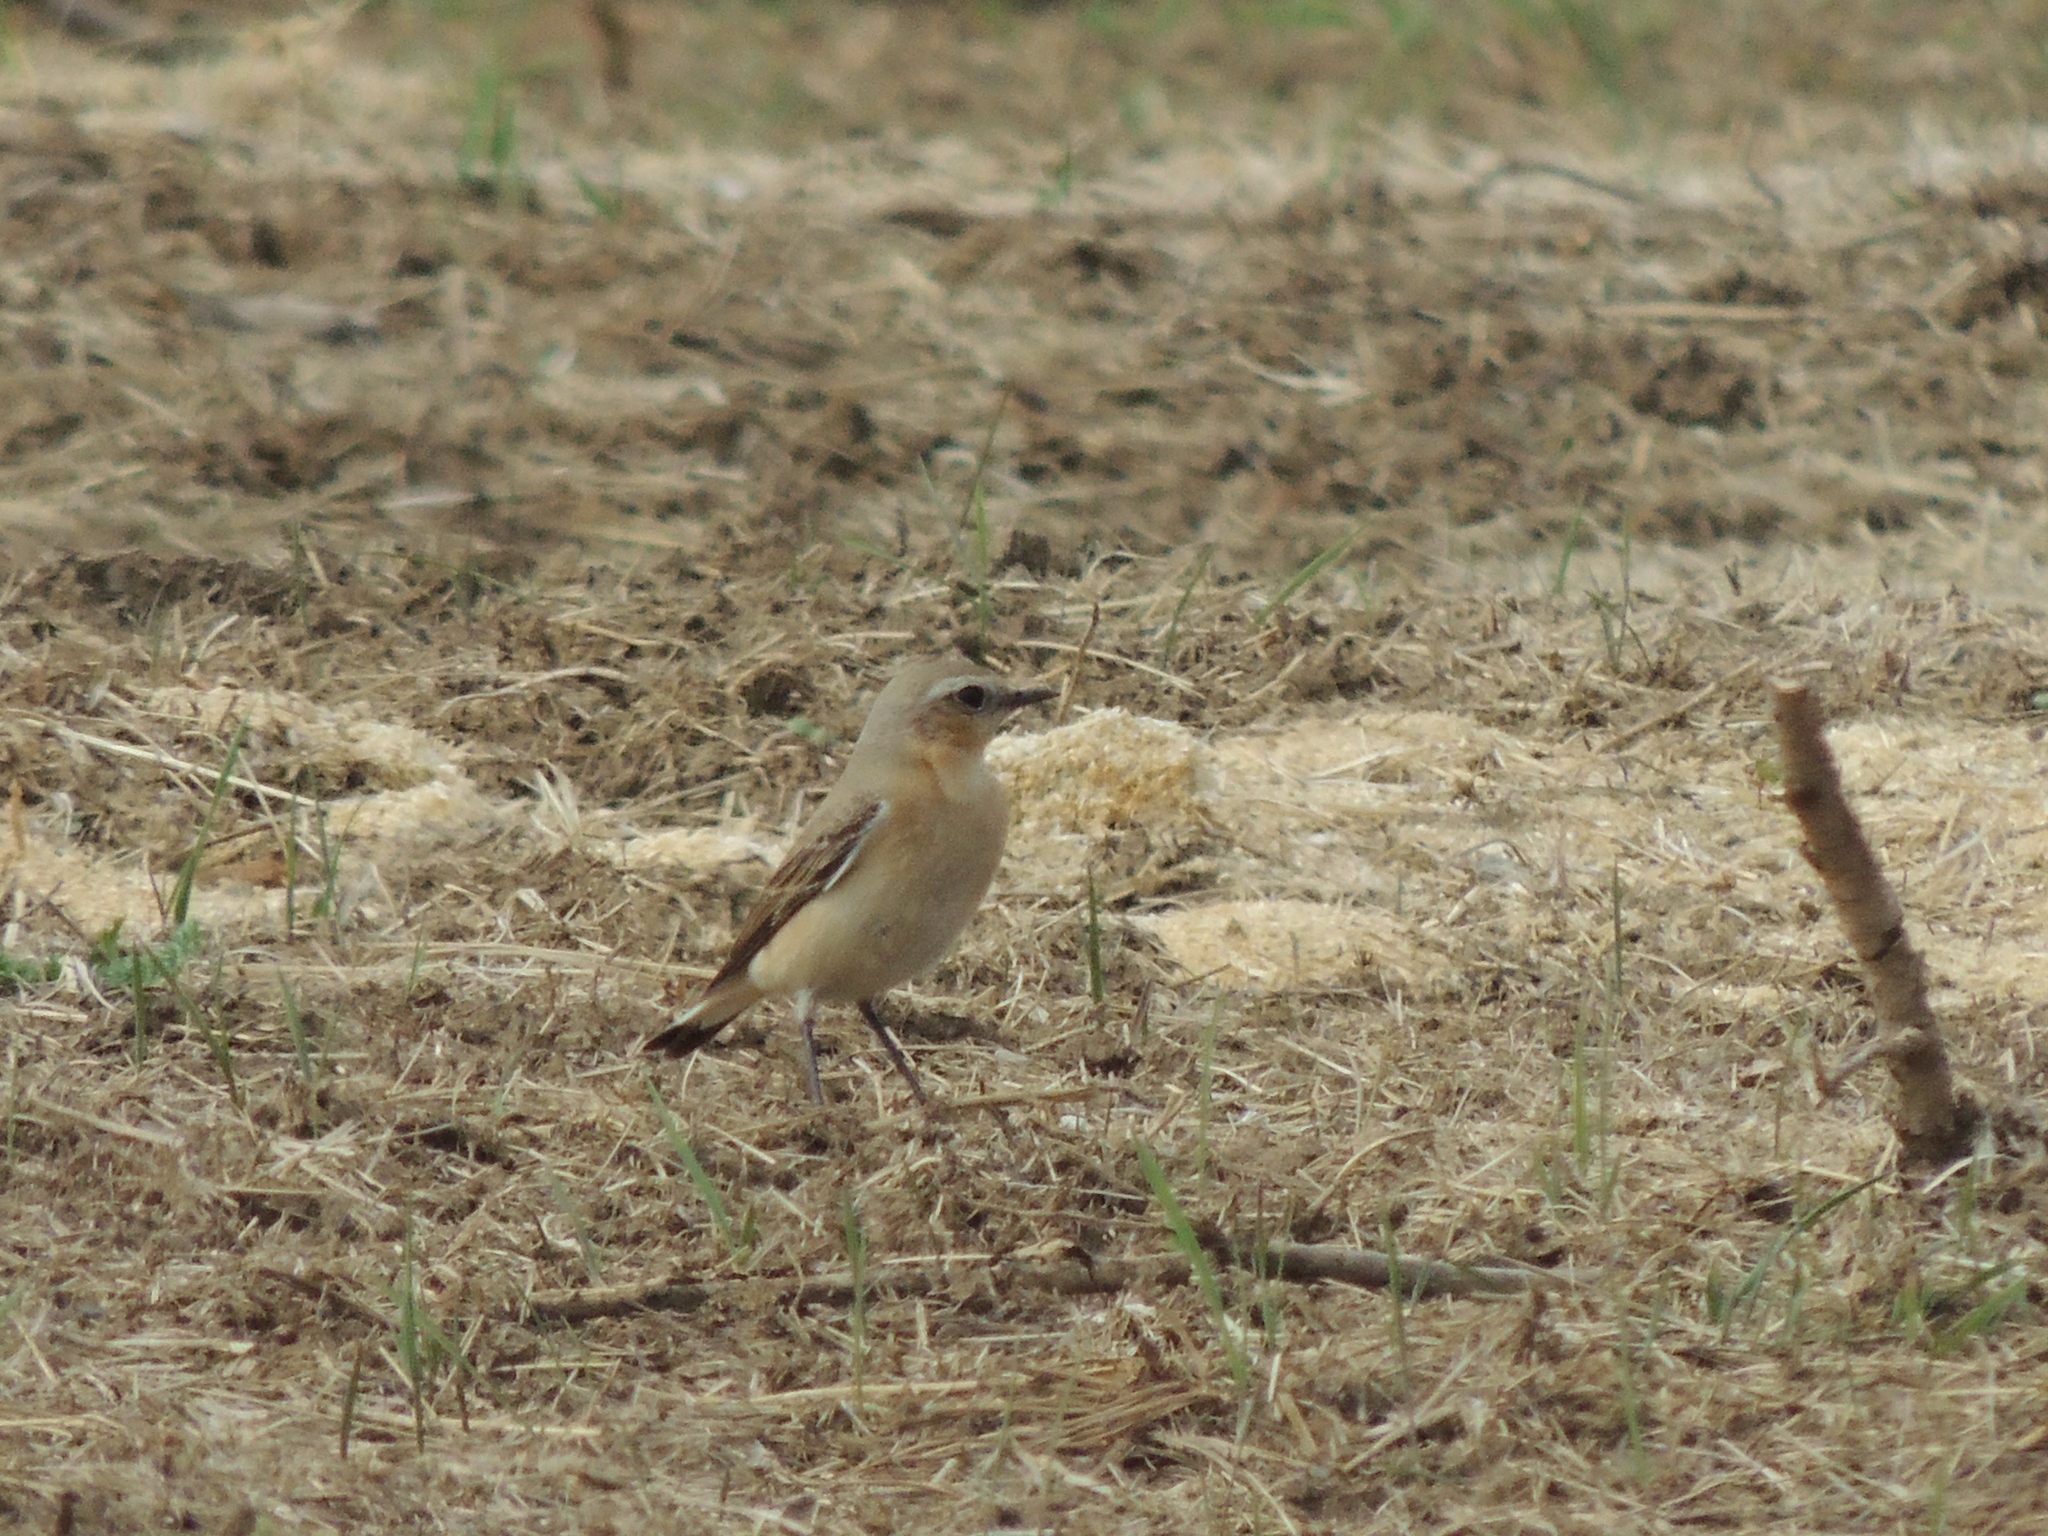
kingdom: Animalia
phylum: Chordata
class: Aves
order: Passeriformes
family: Muscicapidae
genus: Oenanthe
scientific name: Oenanthe oenanthe
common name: Northern wheatear
